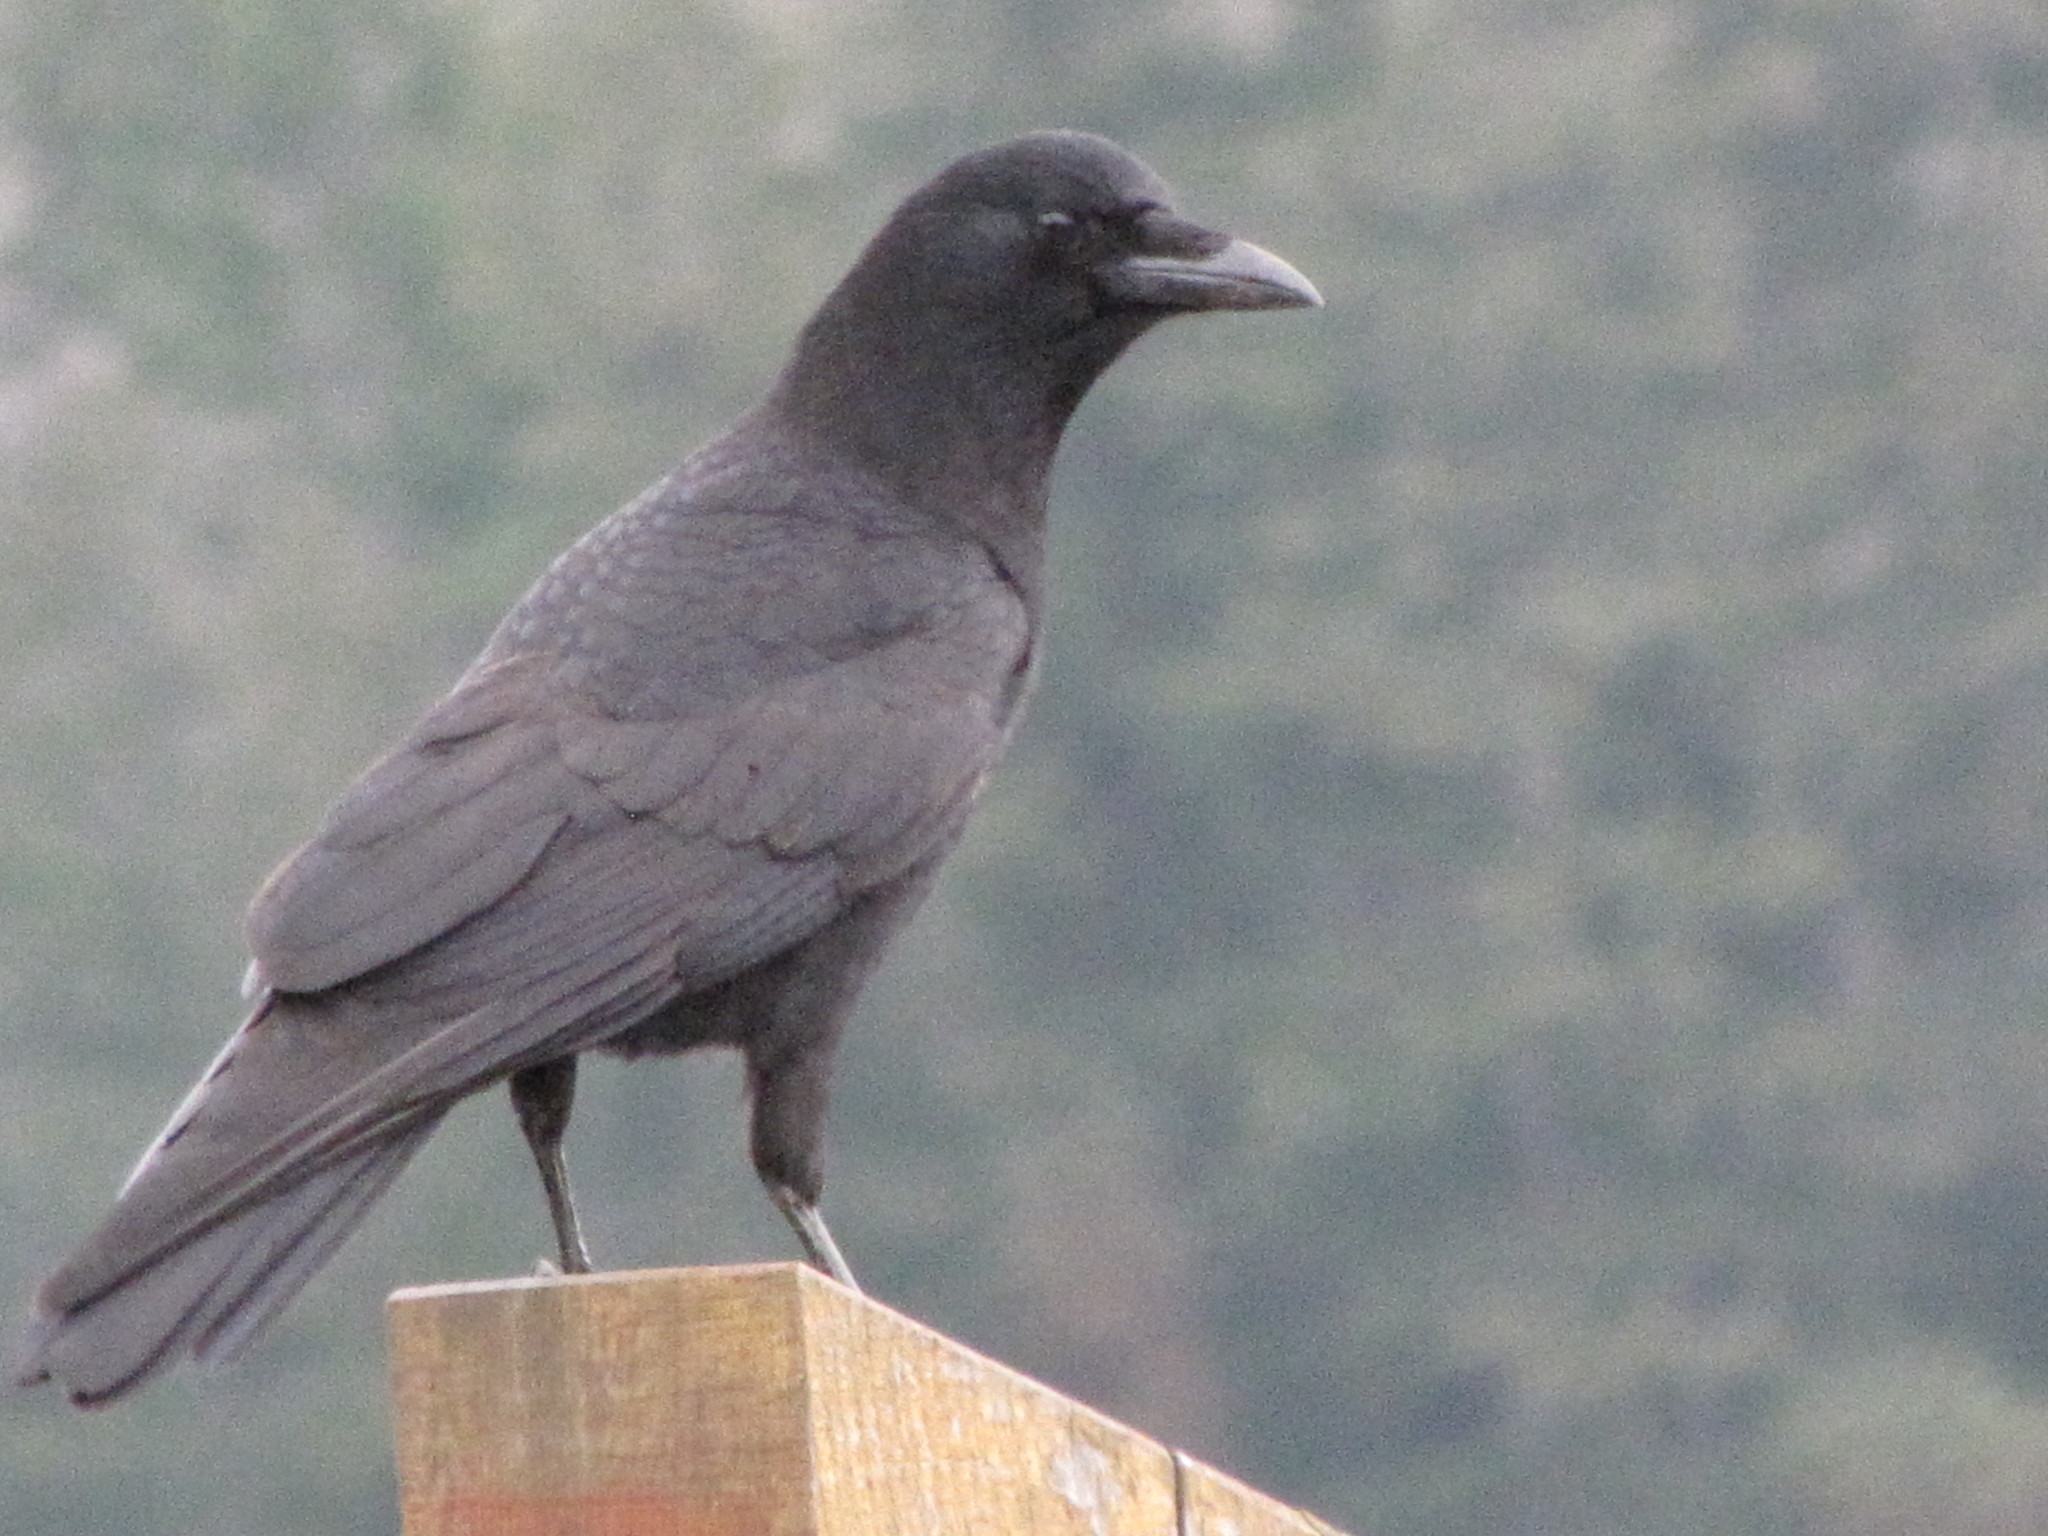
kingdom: Animalia
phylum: Chordata
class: Aves
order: Passeriformes
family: Corvidae
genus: Corvus
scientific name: Corvus brachyrhynchos
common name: American crow
